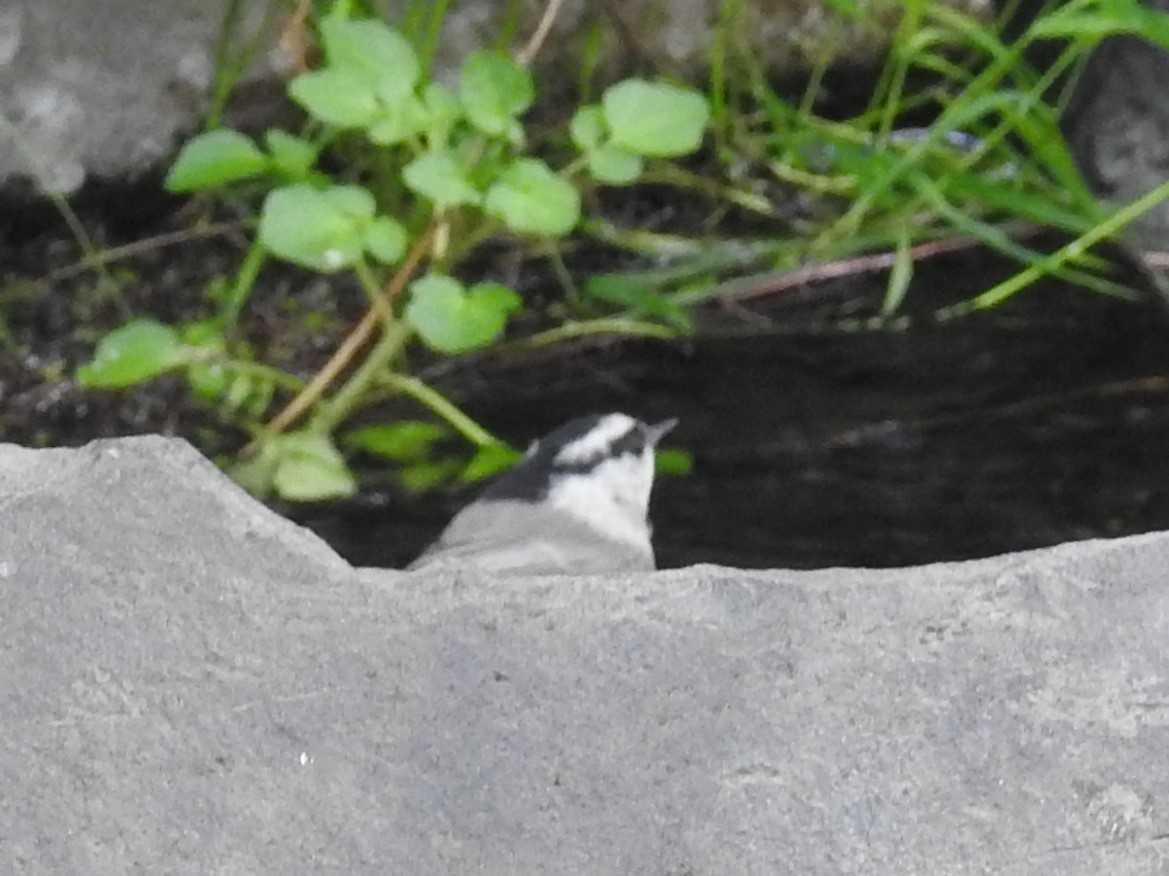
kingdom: Animalia
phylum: Chordata
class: Aves
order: Passeriformes
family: Paridae
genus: Poecile
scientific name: Poecile gambeli
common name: Mountain chickadee
